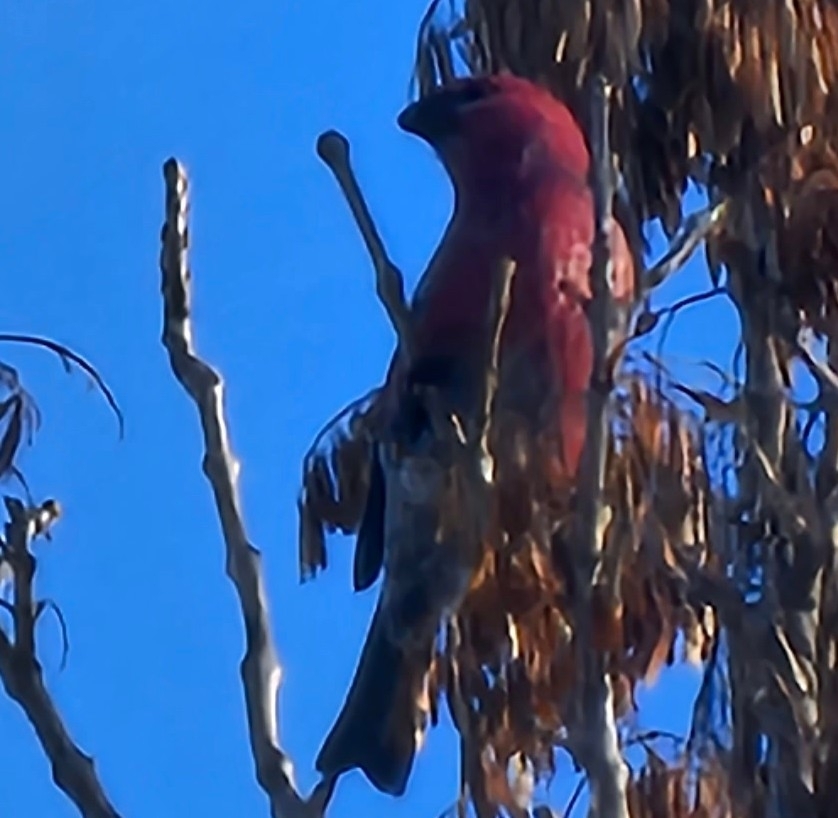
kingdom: Animalia
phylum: Chordata
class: Aves
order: Passeriformes
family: Fringillidae
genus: Pinicola
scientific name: Pinicola enucleator
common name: Pine grosbeak
